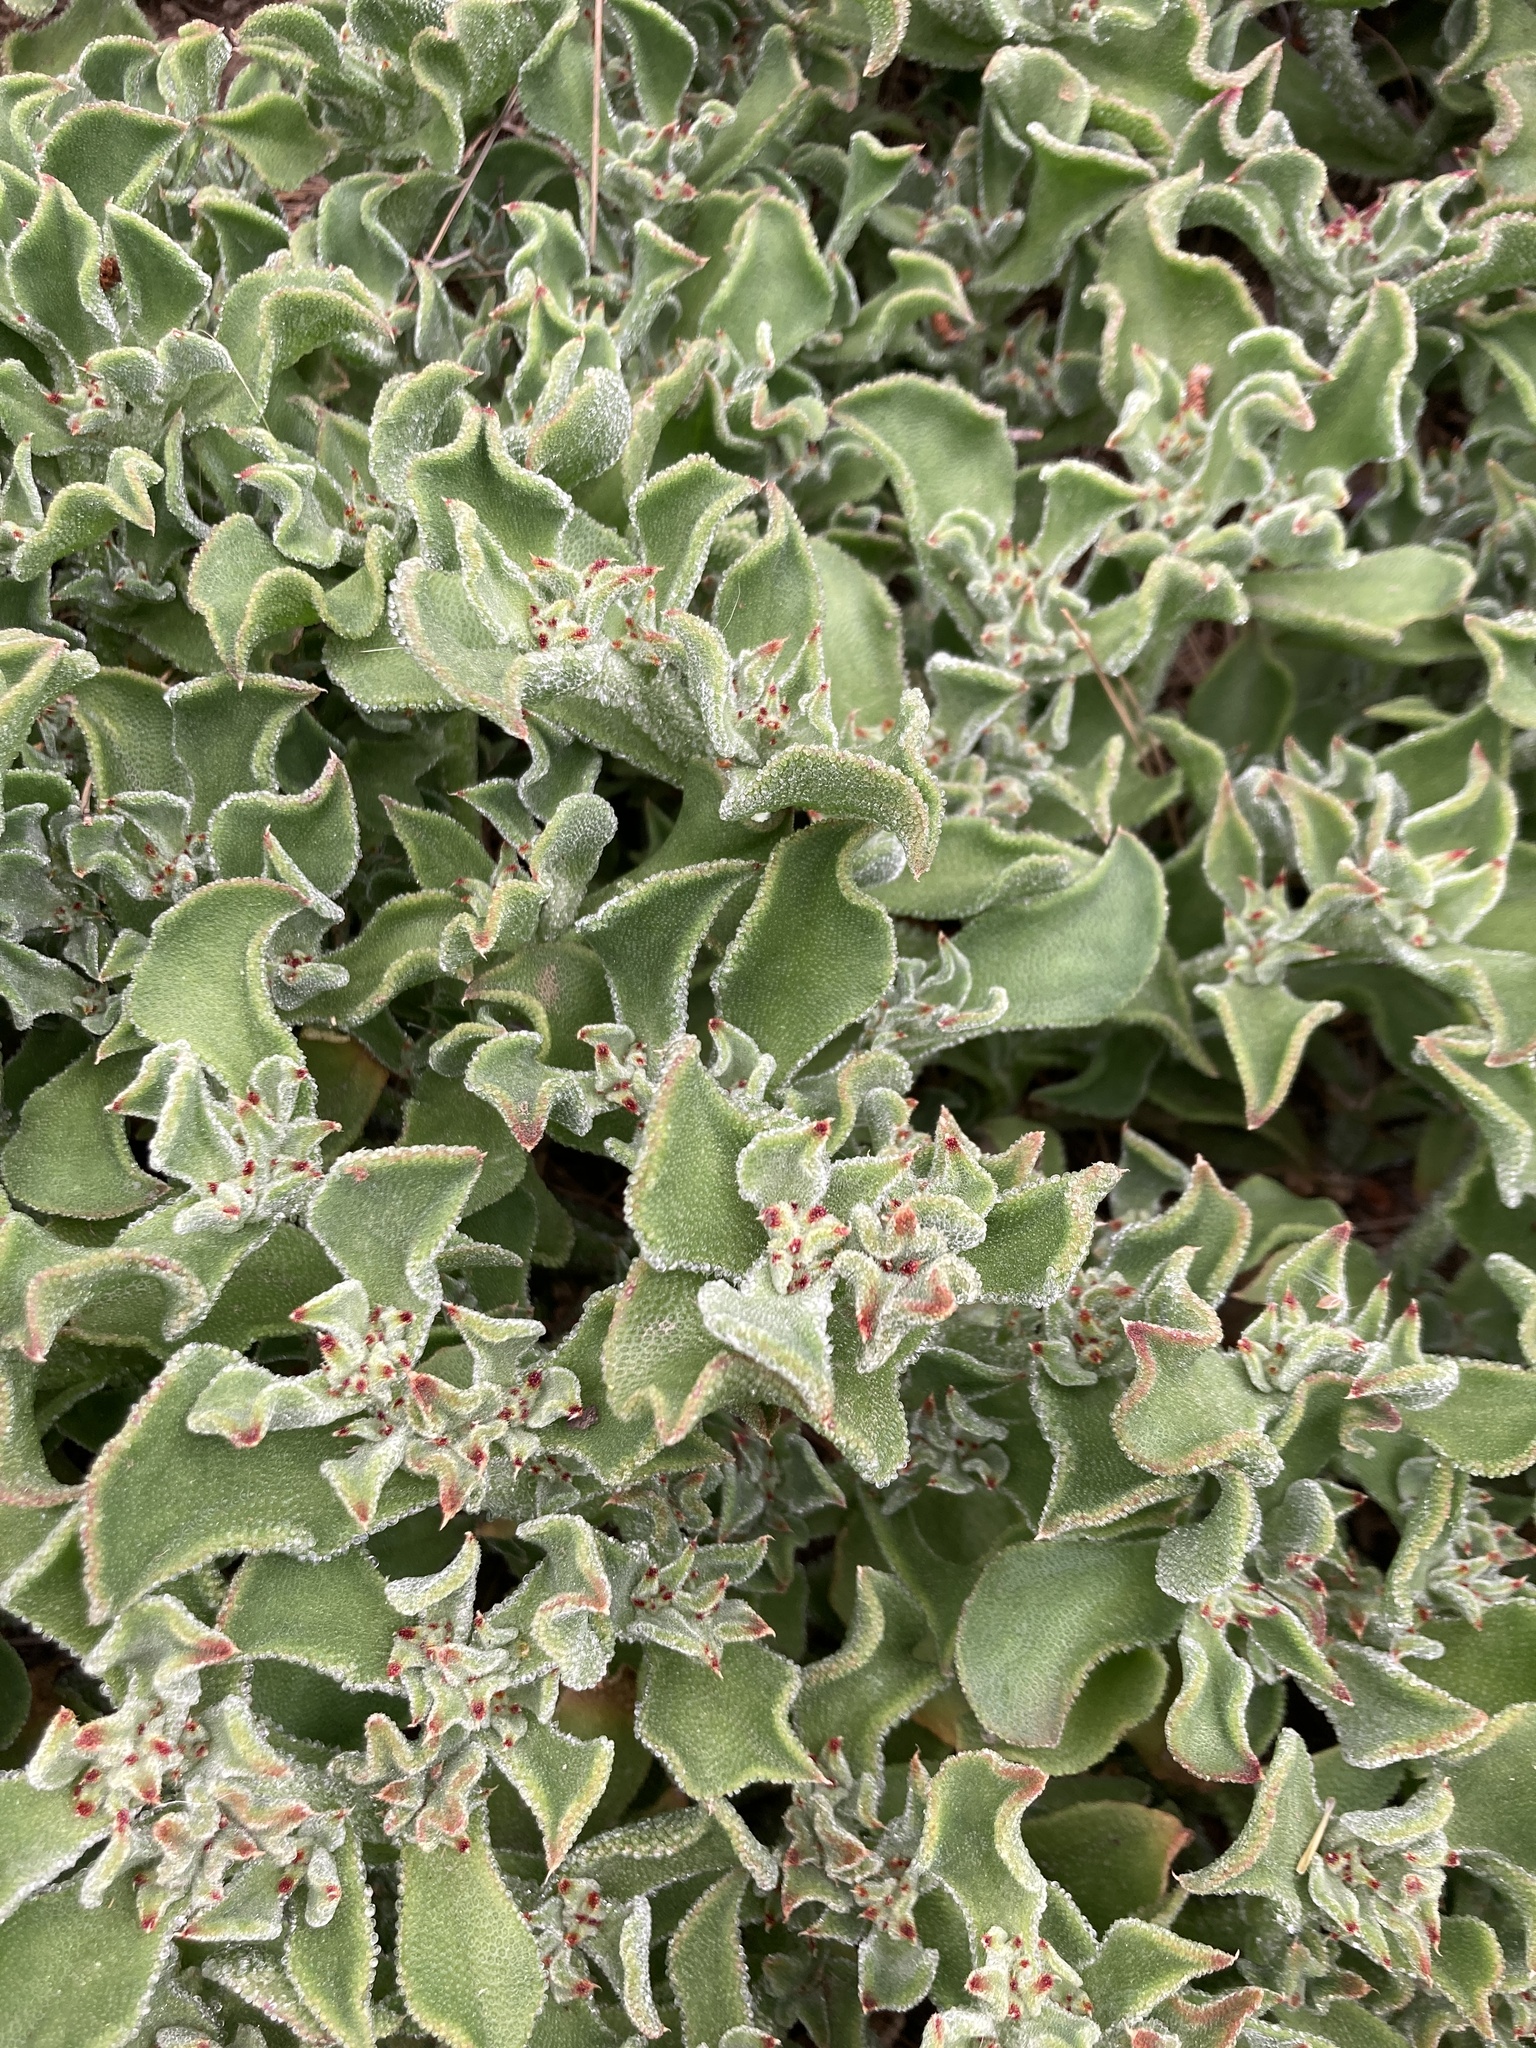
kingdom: Plantae
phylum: Tracheophyta
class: Magnoliopsida
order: Caryophyllales
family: Aizoaceae
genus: Mesembryanthemum
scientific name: Mesembryanthemum crystallinum
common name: Common iceplant
